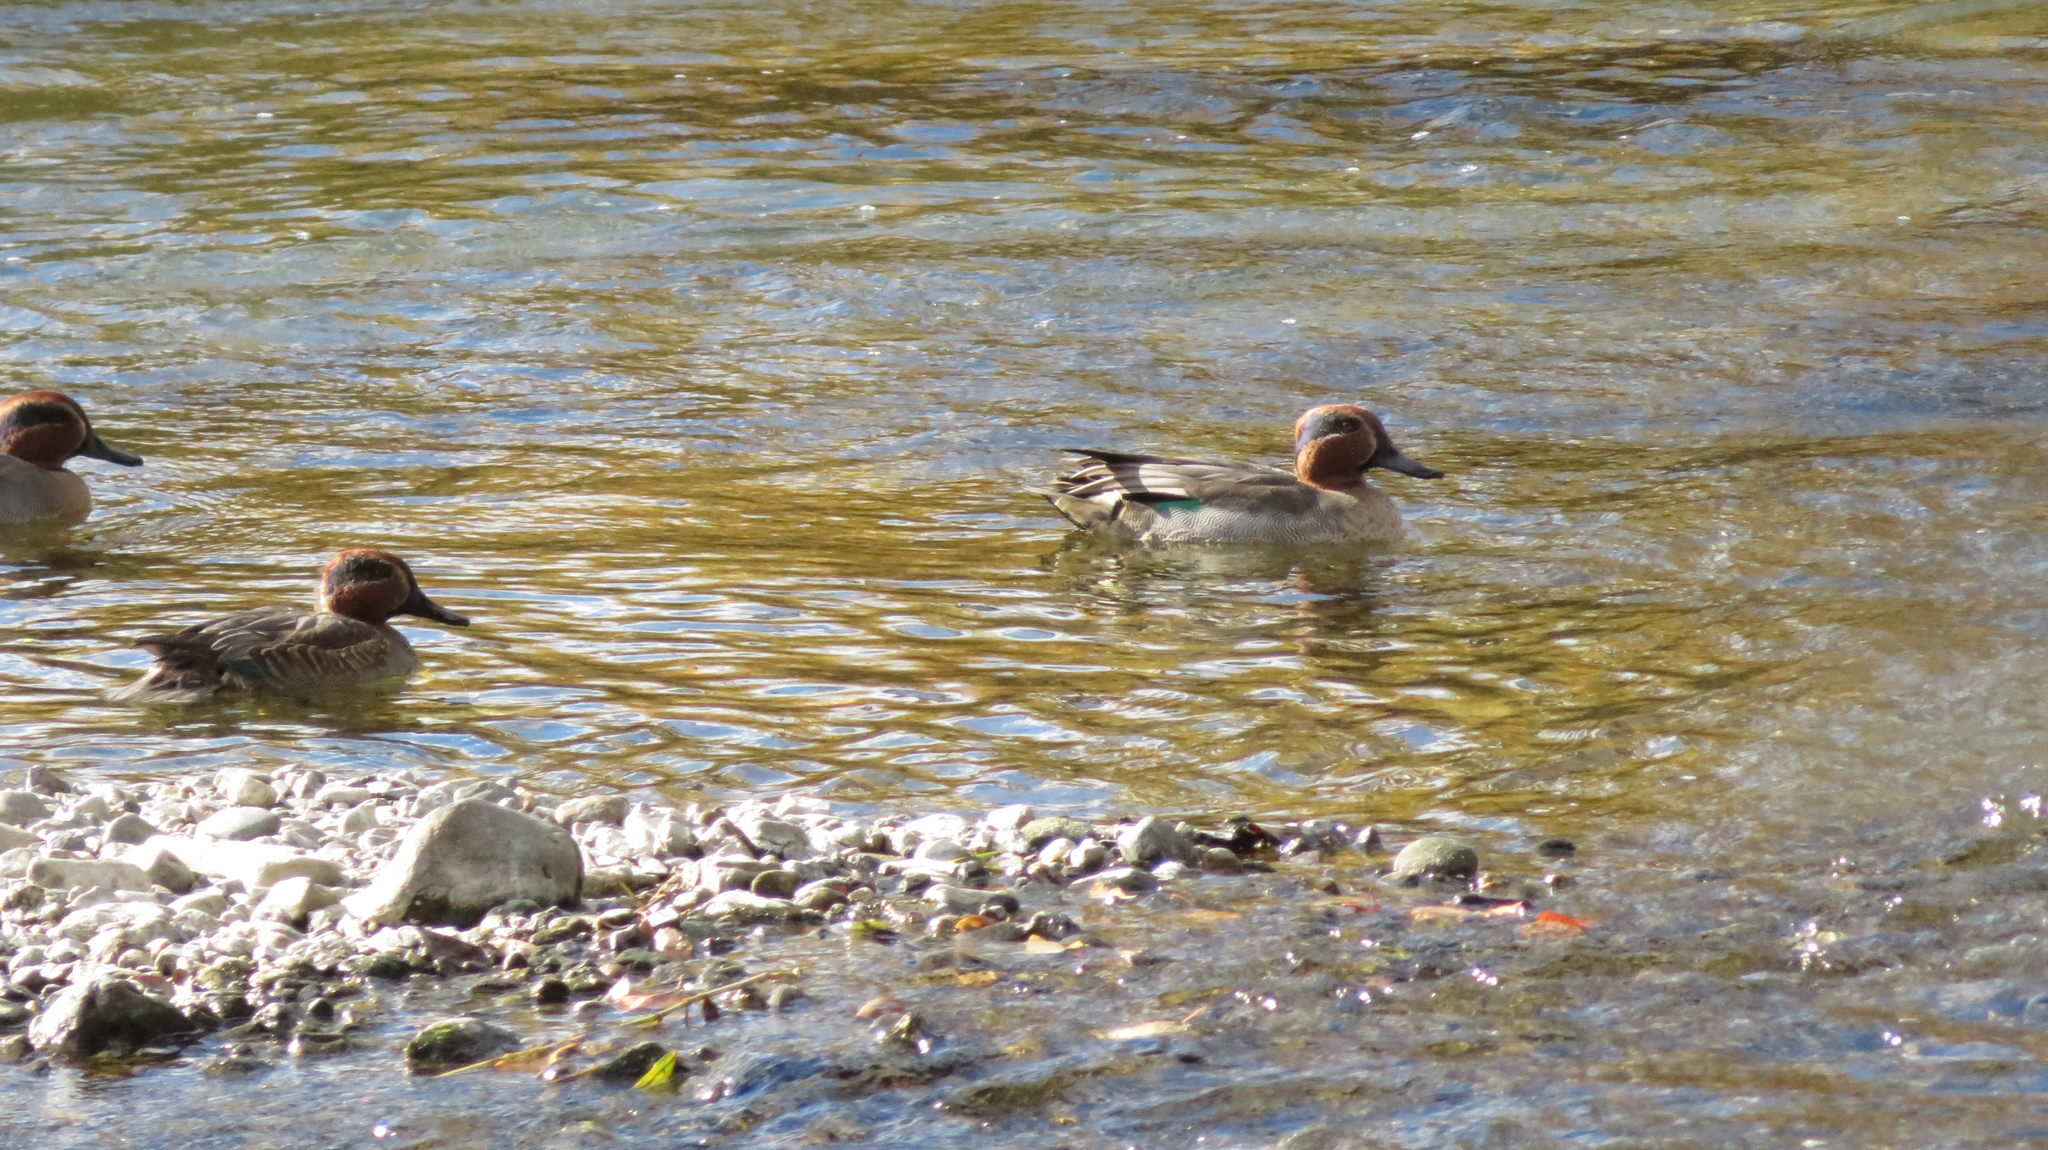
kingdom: Animalia
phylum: Chordata
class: Aves
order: Anseriformes
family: Anatidae
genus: Anas
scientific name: Anas crecca
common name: Eurasian teal
